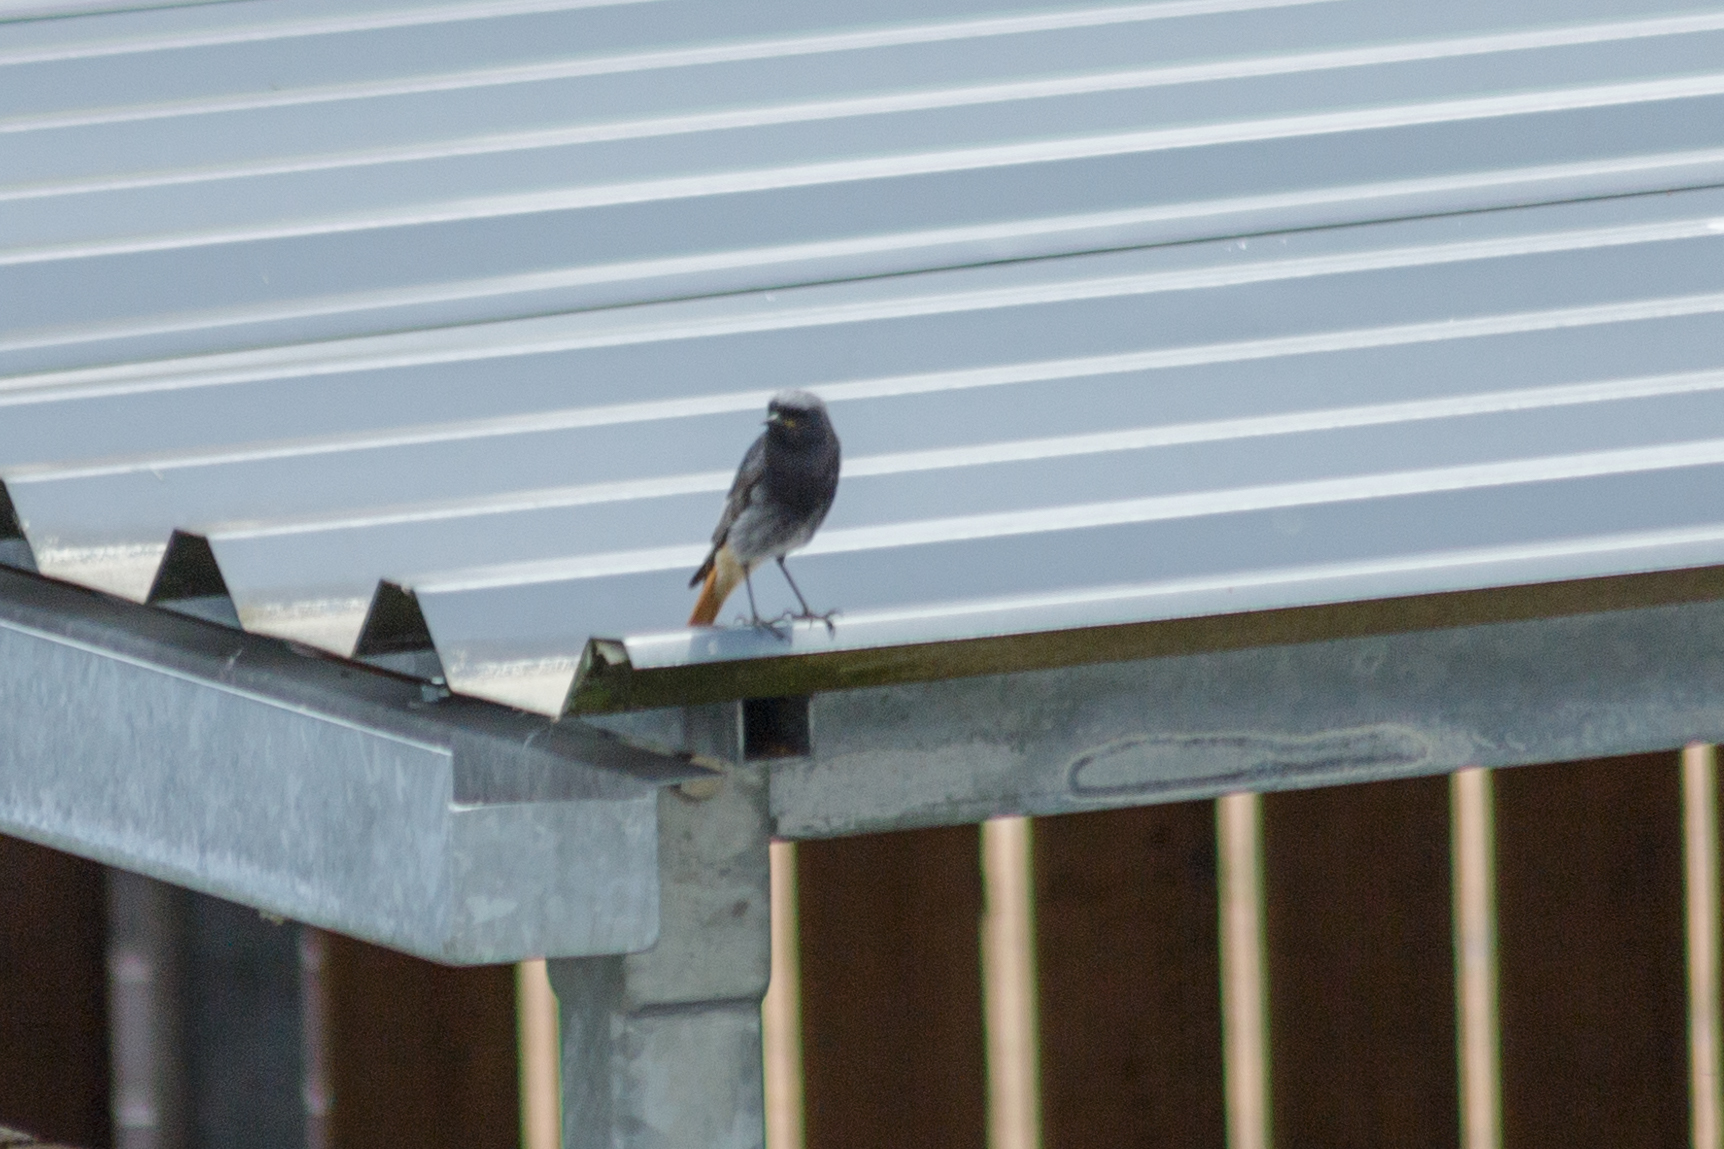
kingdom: Animalia
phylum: Chordata
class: Aves
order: Passeriformes
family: Muscicapidae
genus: Phoenicurus
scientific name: Phoenicurus ochruros
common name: Black redstart
